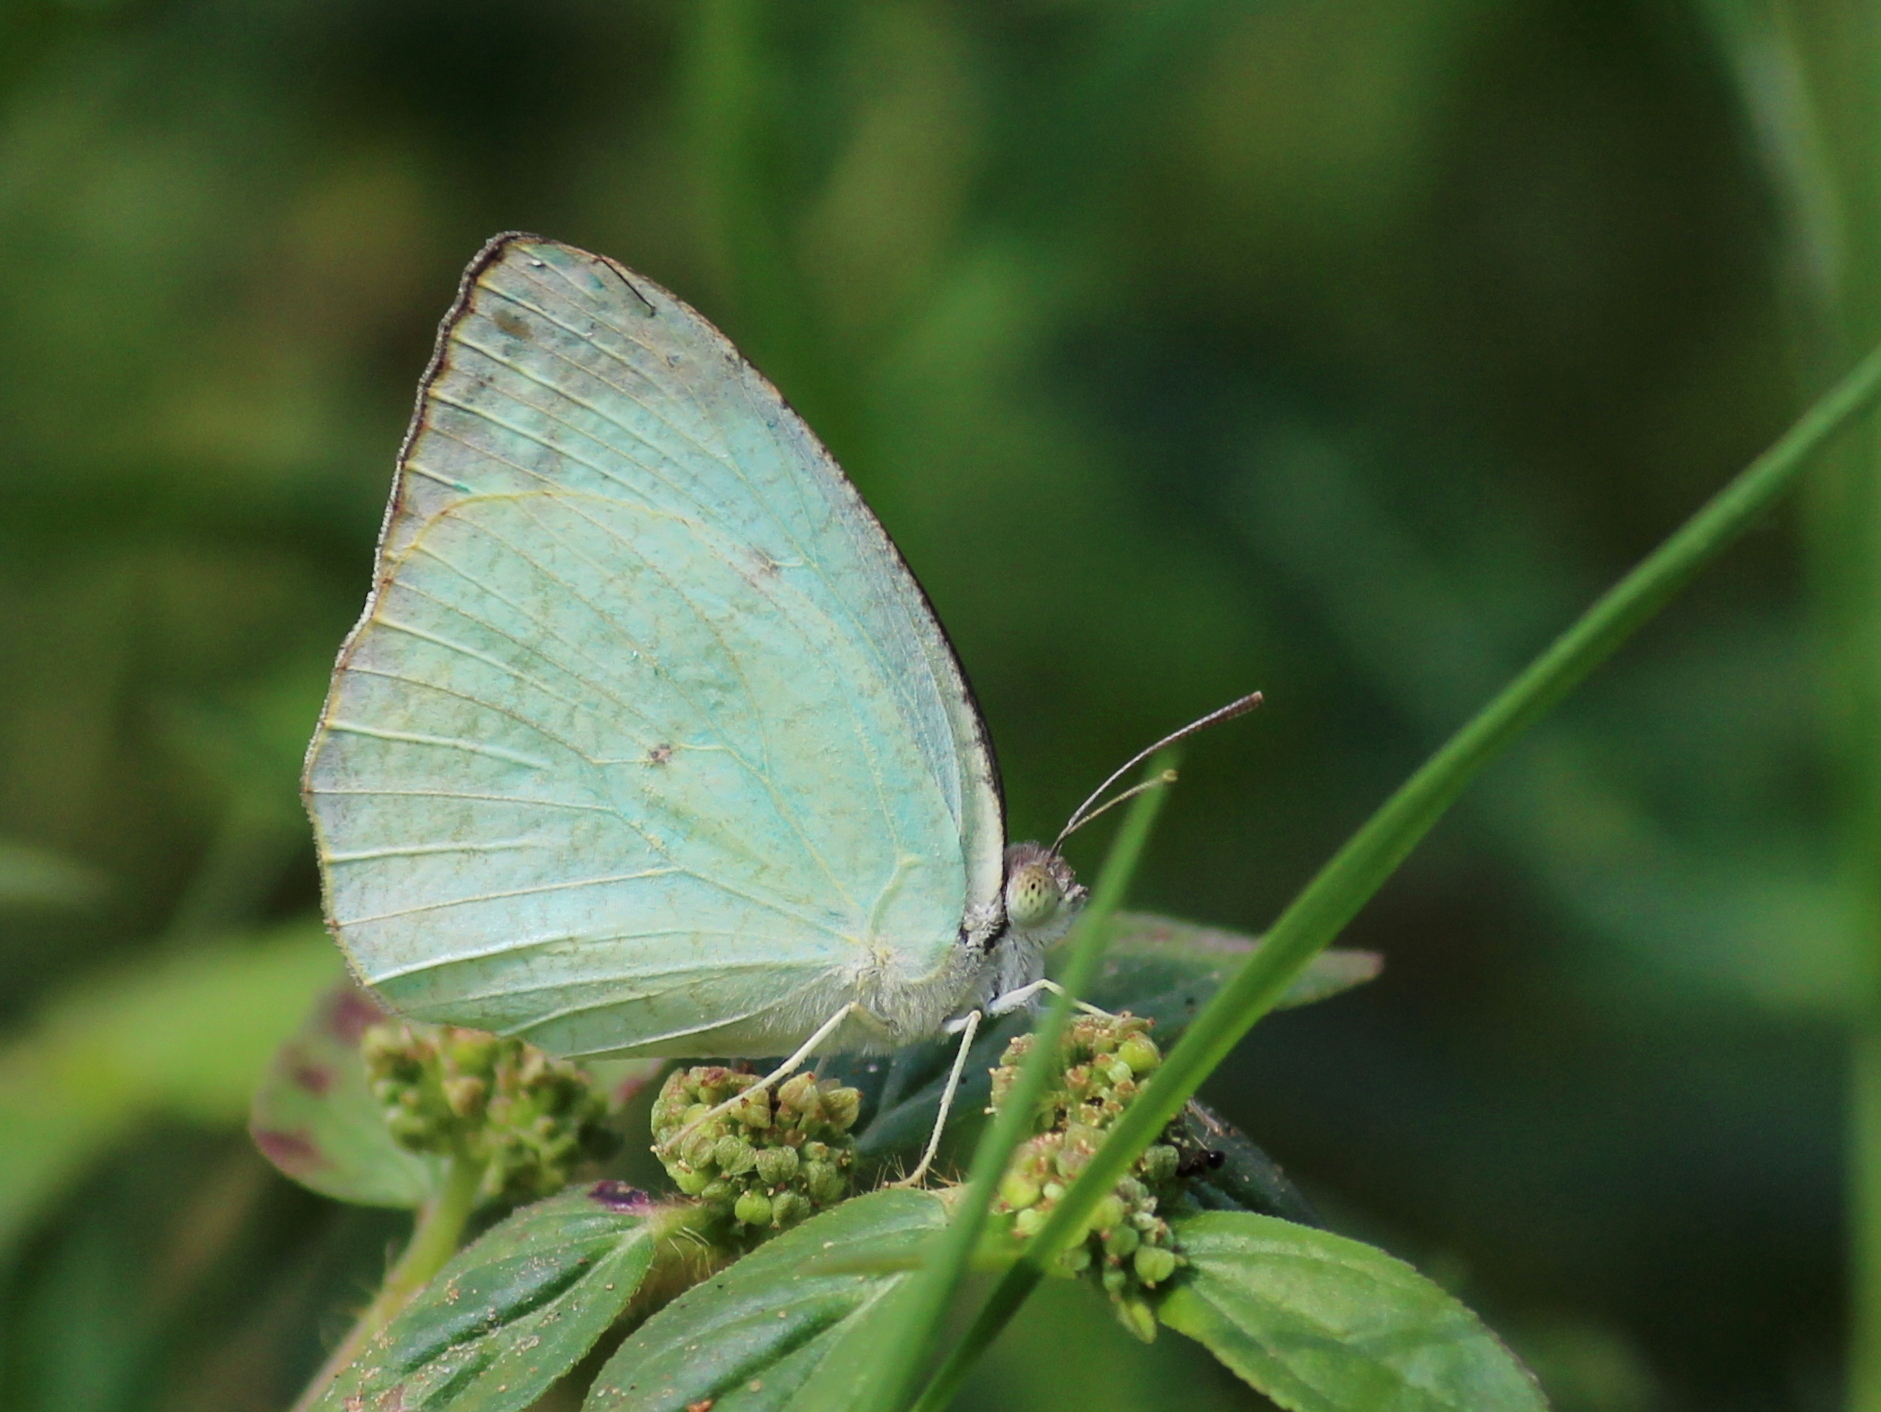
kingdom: Animalia
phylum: Arthropoda
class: Insecta
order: Lepidoptera
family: Pieridae
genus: Catopsilia
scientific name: Catopsilia pyranthe
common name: Mottled emigrant
